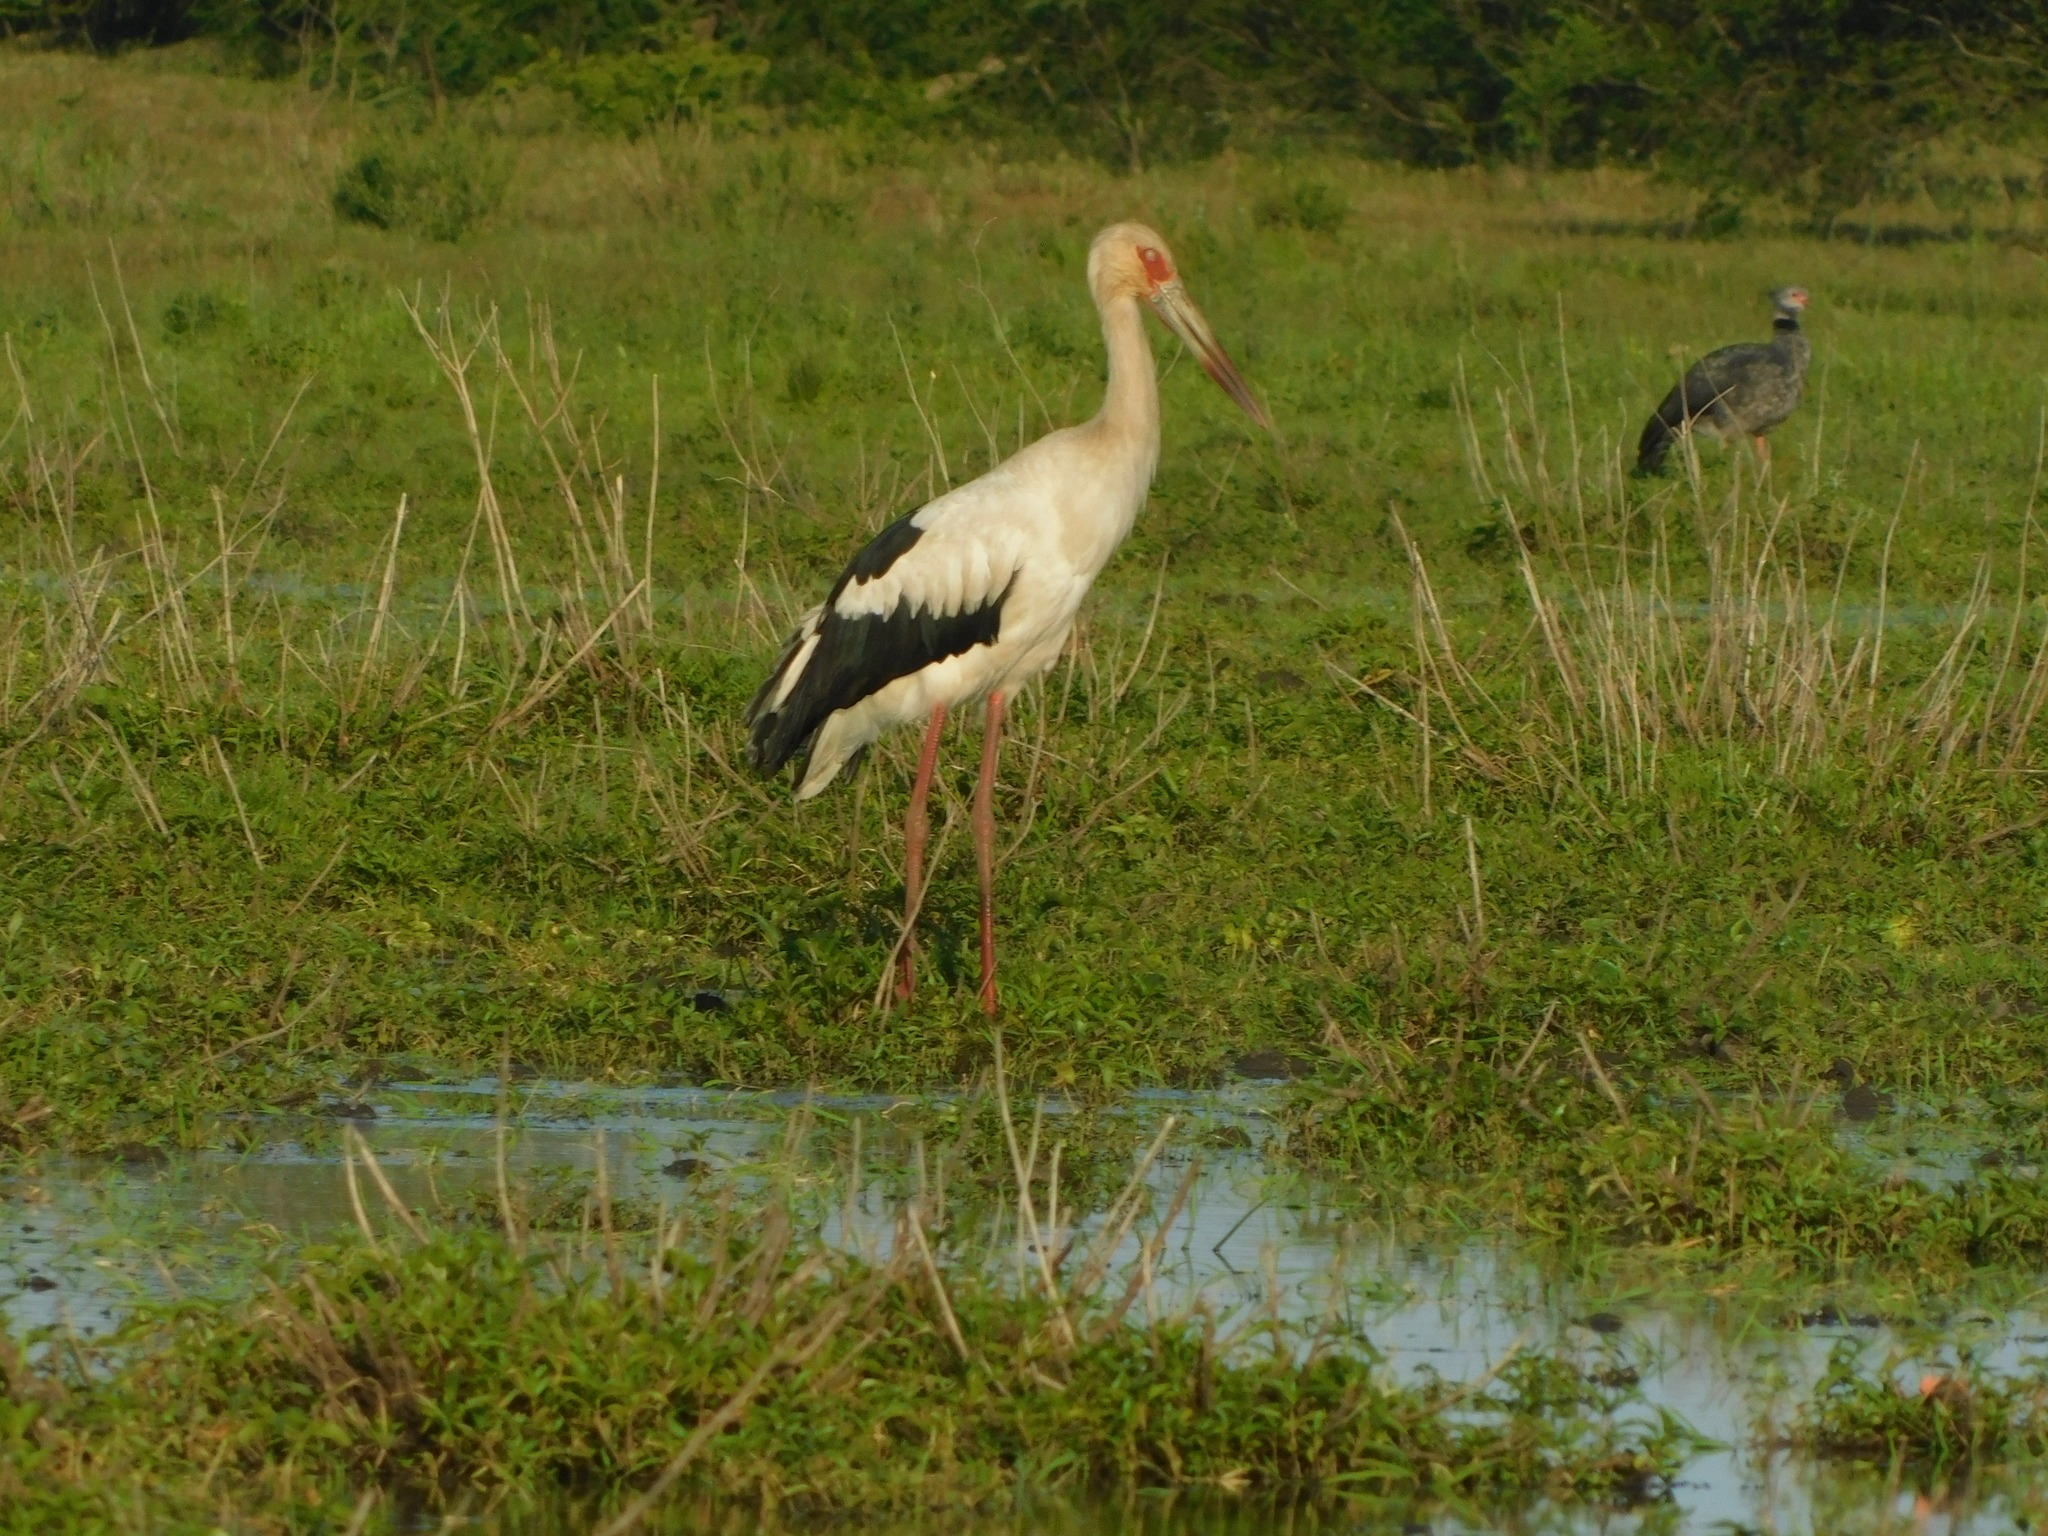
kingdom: Animalia
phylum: Chordata
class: Aves
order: Ciconiiformes
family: Ciconiidae
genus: Ciconia
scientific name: Ciconia maguari
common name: Maguari stork
